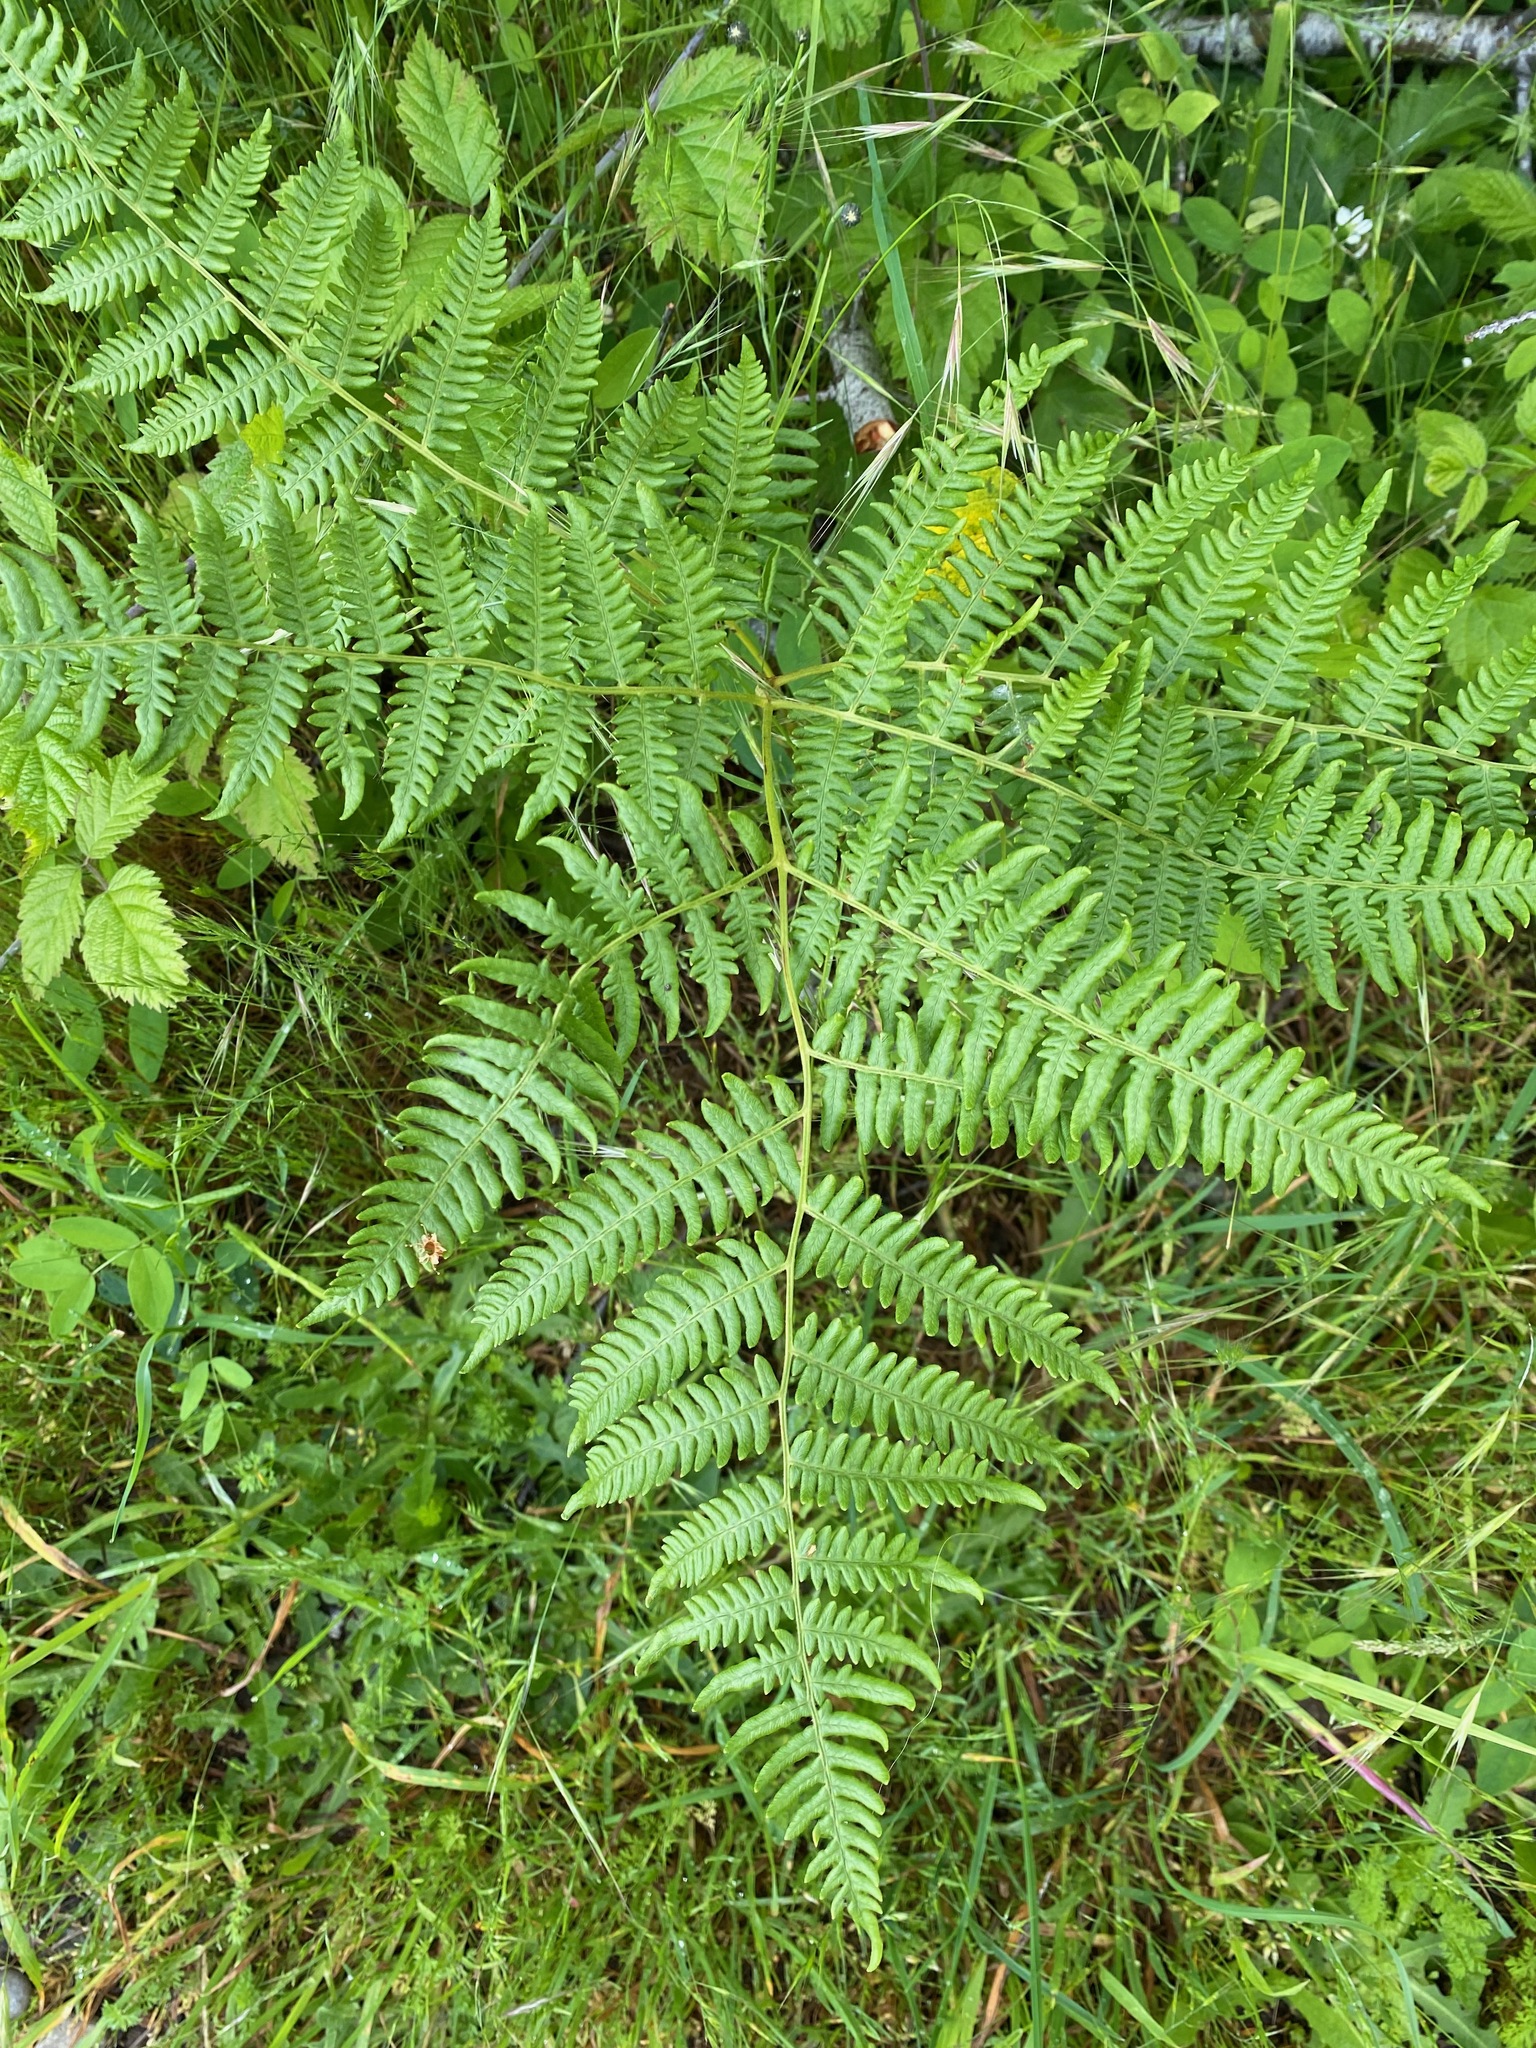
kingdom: Plantae
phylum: Tracheophyta
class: Polypodiopsida
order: Polypodiales
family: Dennstaedtiaceae
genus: Pteridium
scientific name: Pteridium aquilinum
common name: Bracken
